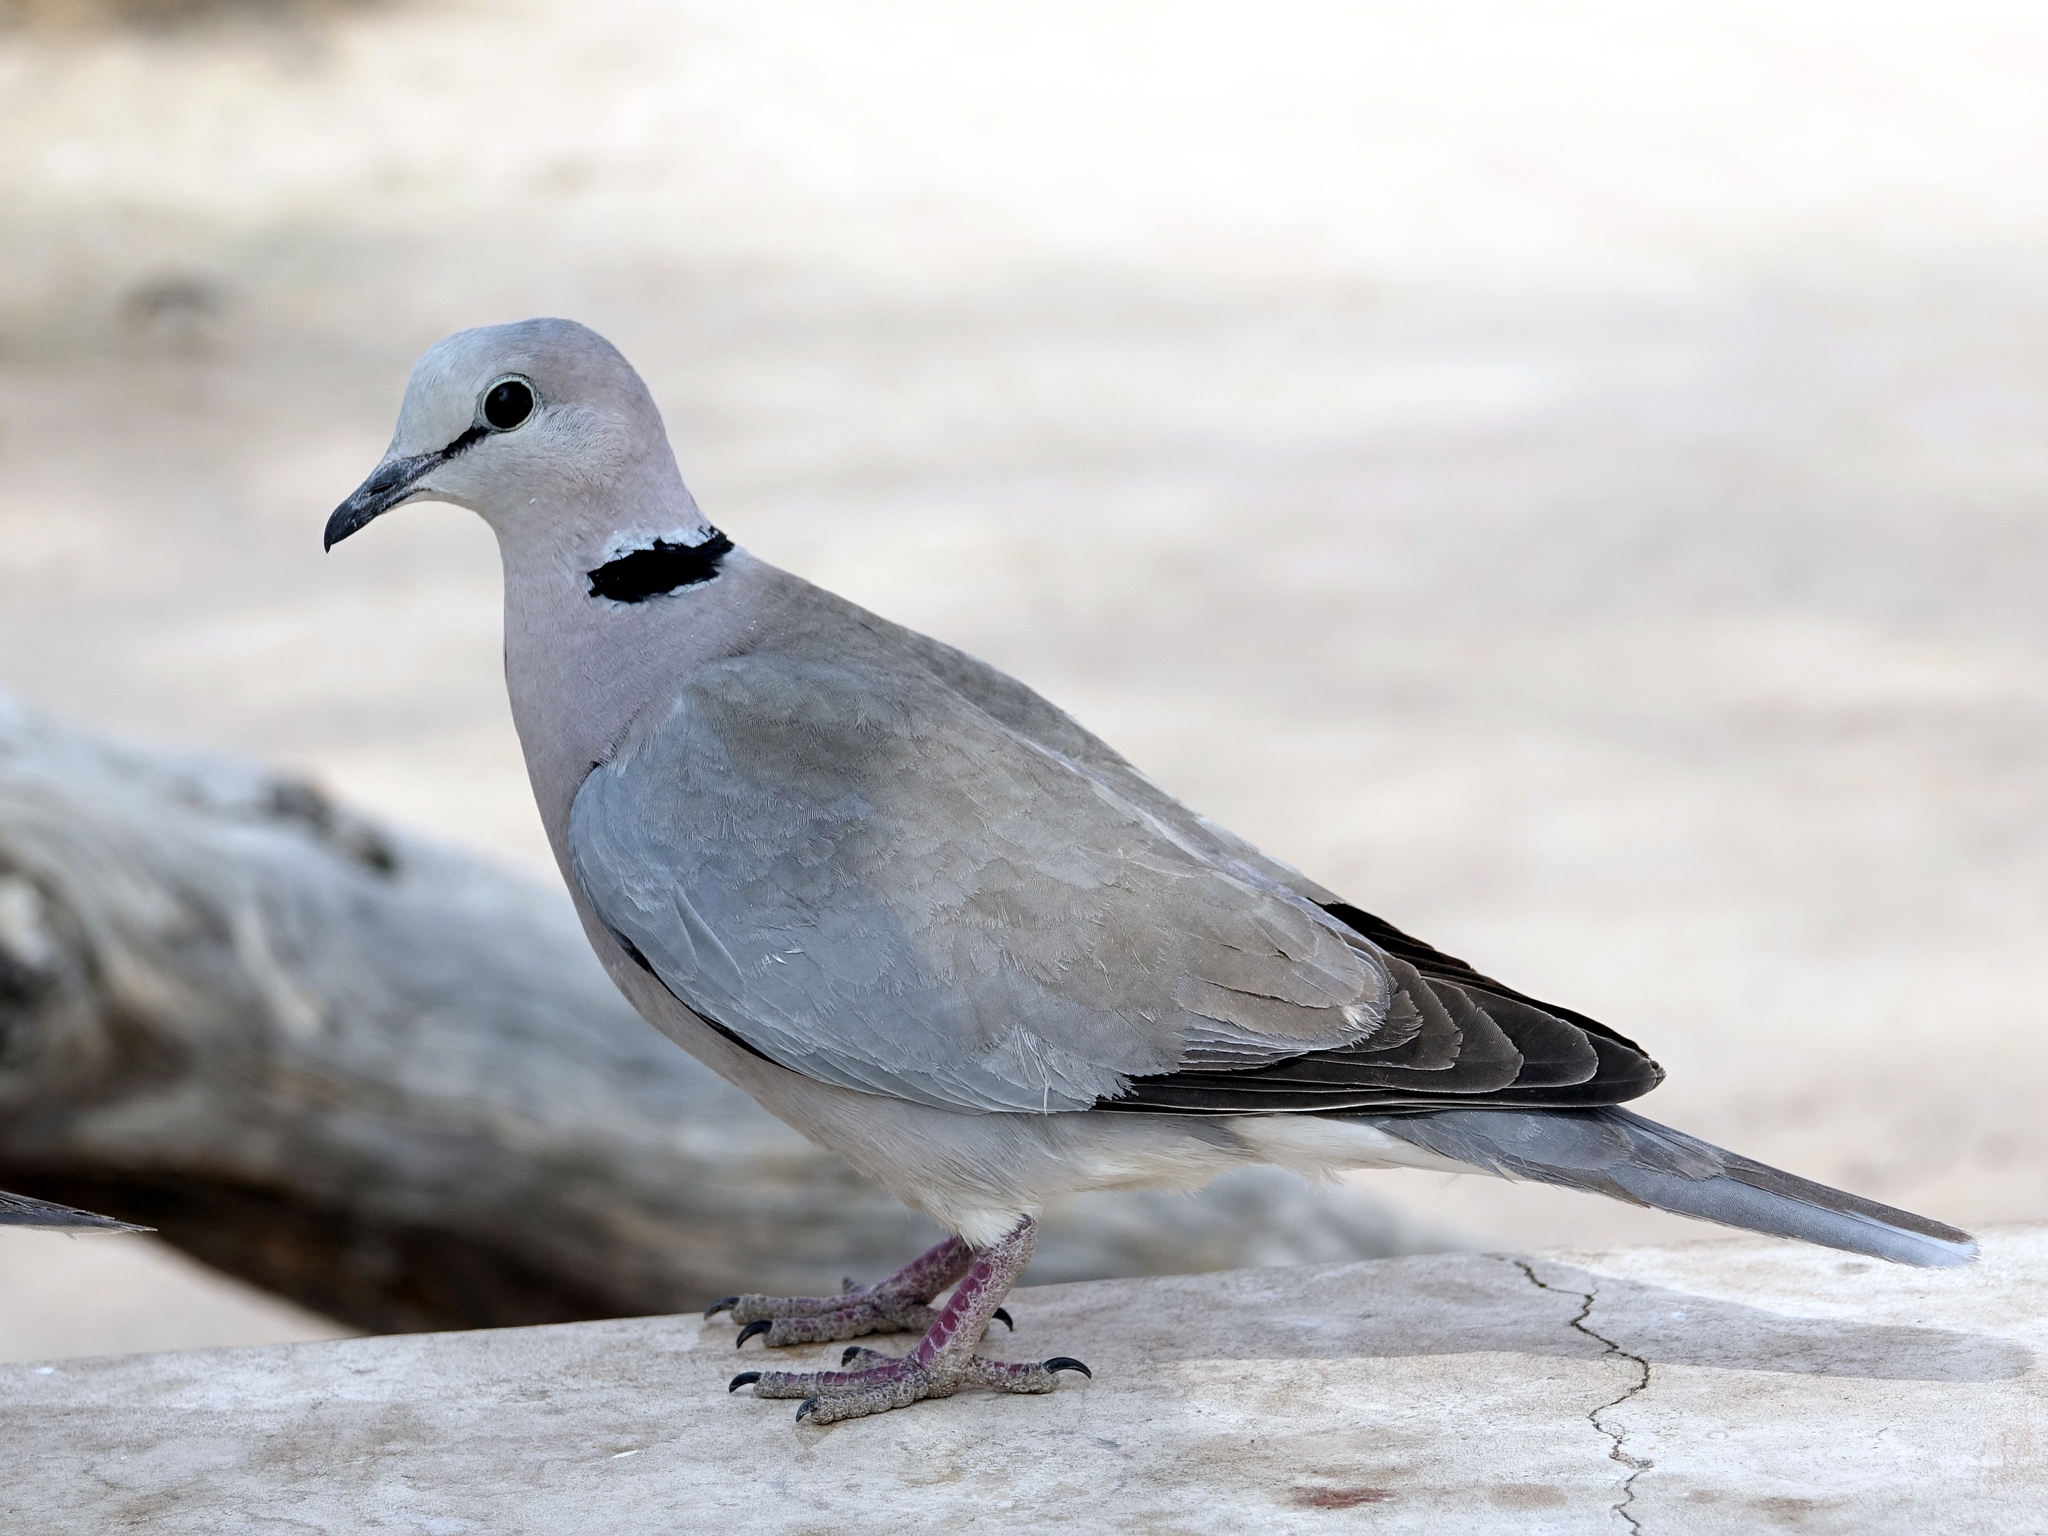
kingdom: Animalia
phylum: Chordata
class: Aves
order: Columbiformes
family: Columbidae
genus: Streptopelia
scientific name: Streptopelia capicola
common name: Ring-necked dove
